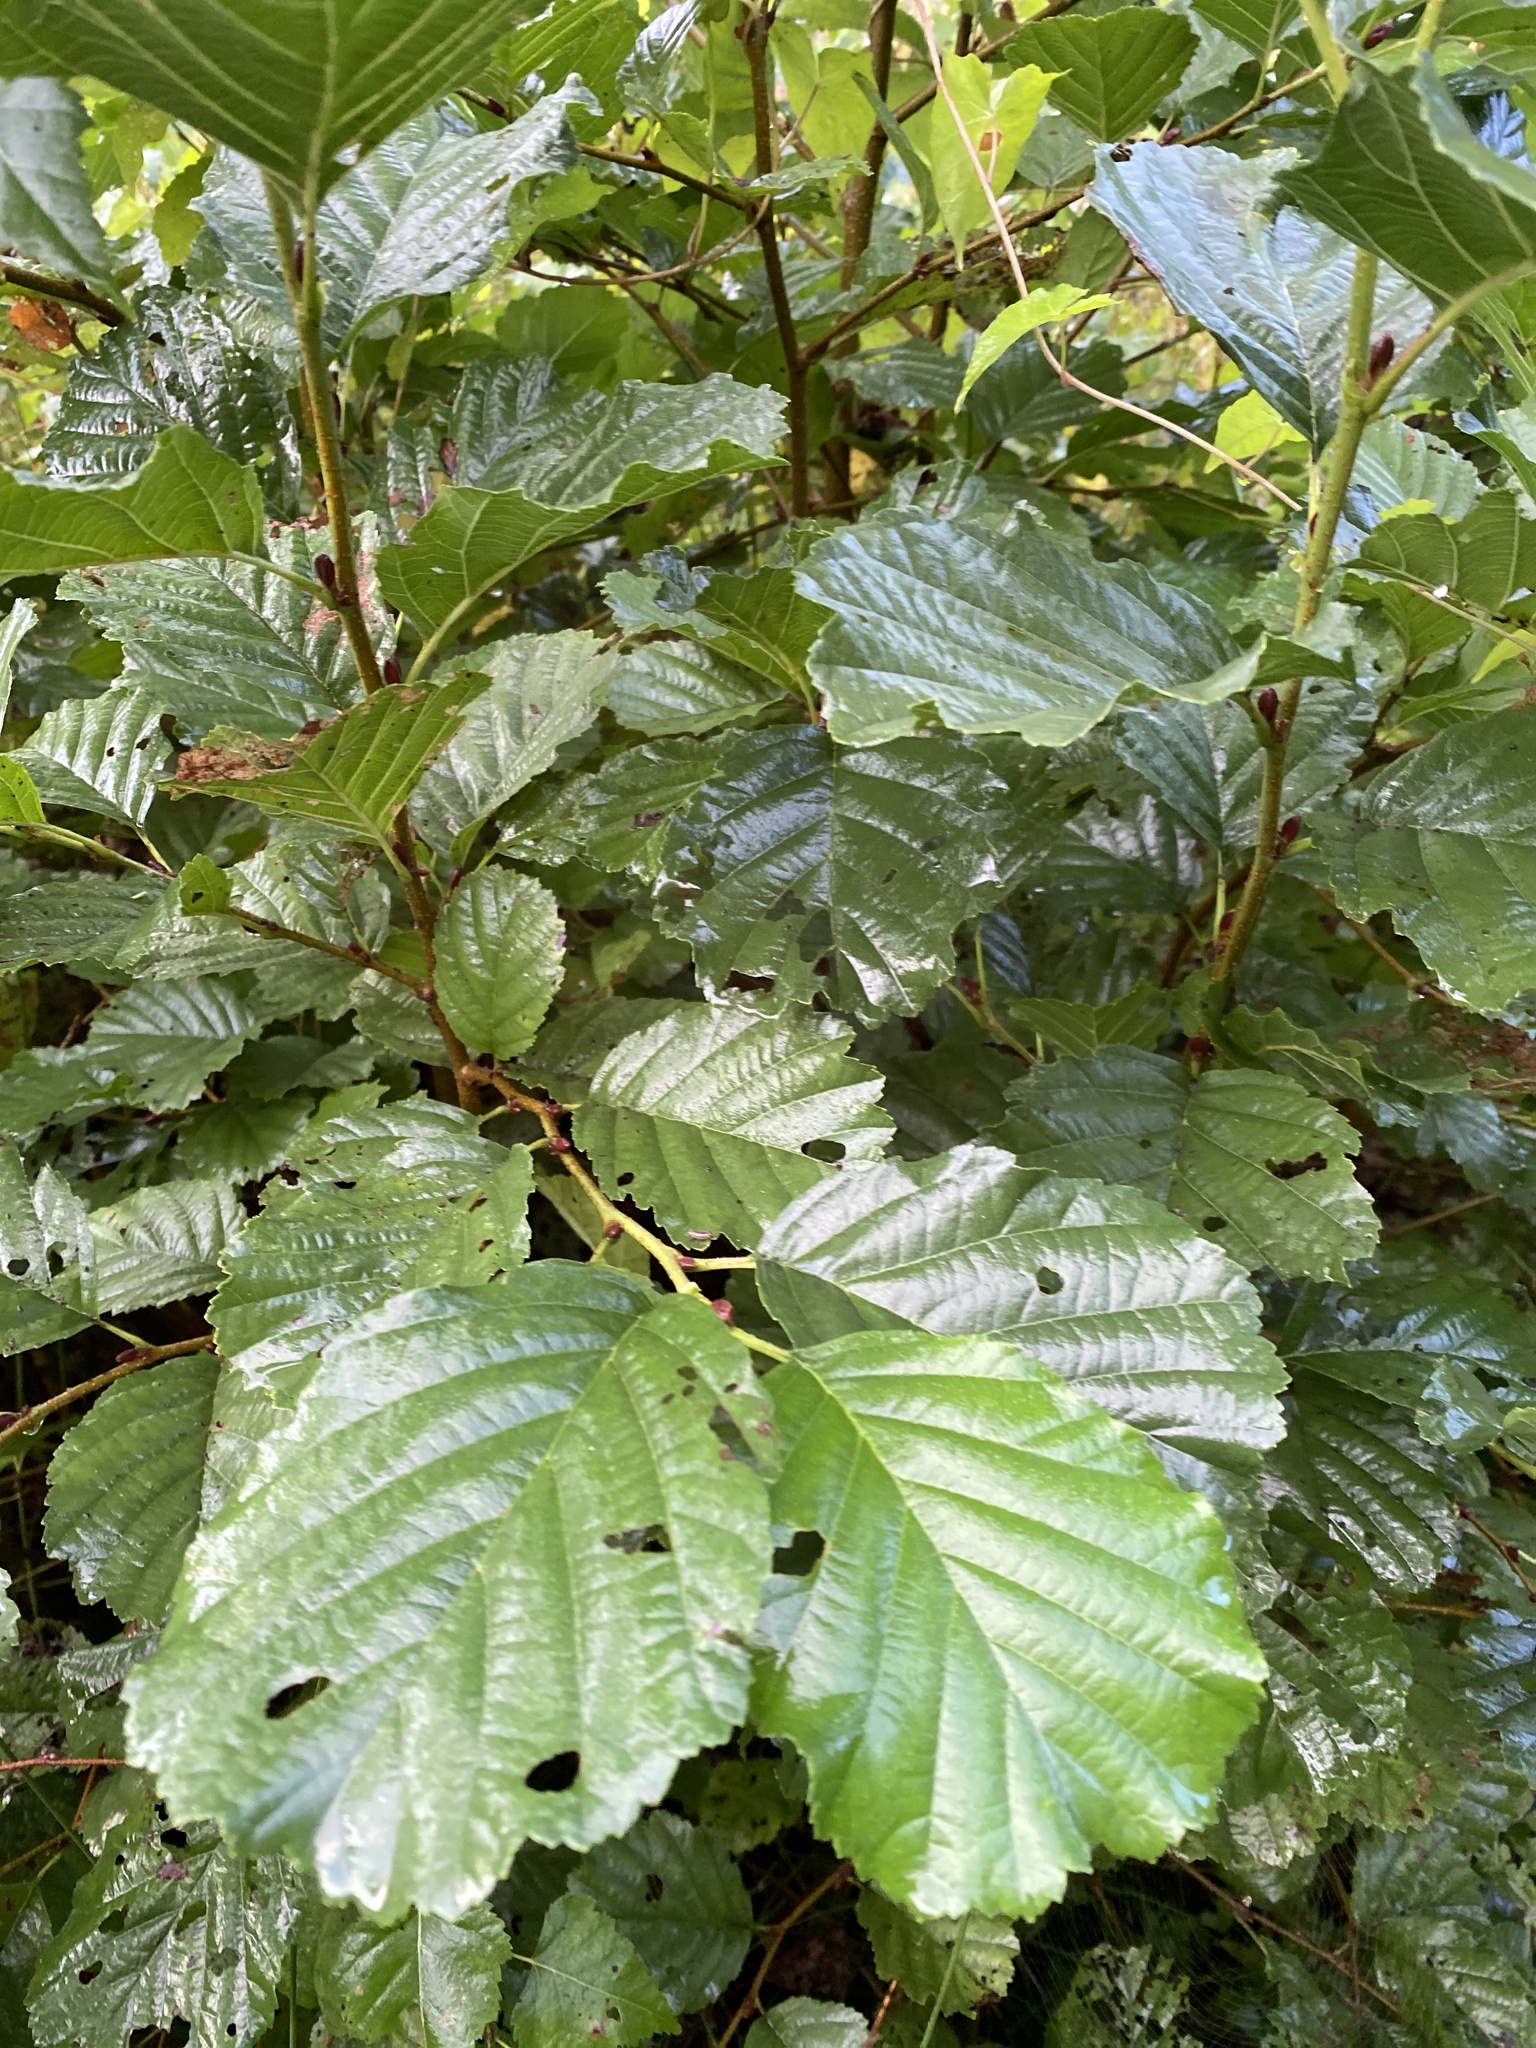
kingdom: Plantae
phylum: Tracheophyta
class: Magnoliopsida
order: Fagales
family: Betulaceae
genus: Alnus
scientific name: Alnus glutinosa
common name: Black alder
